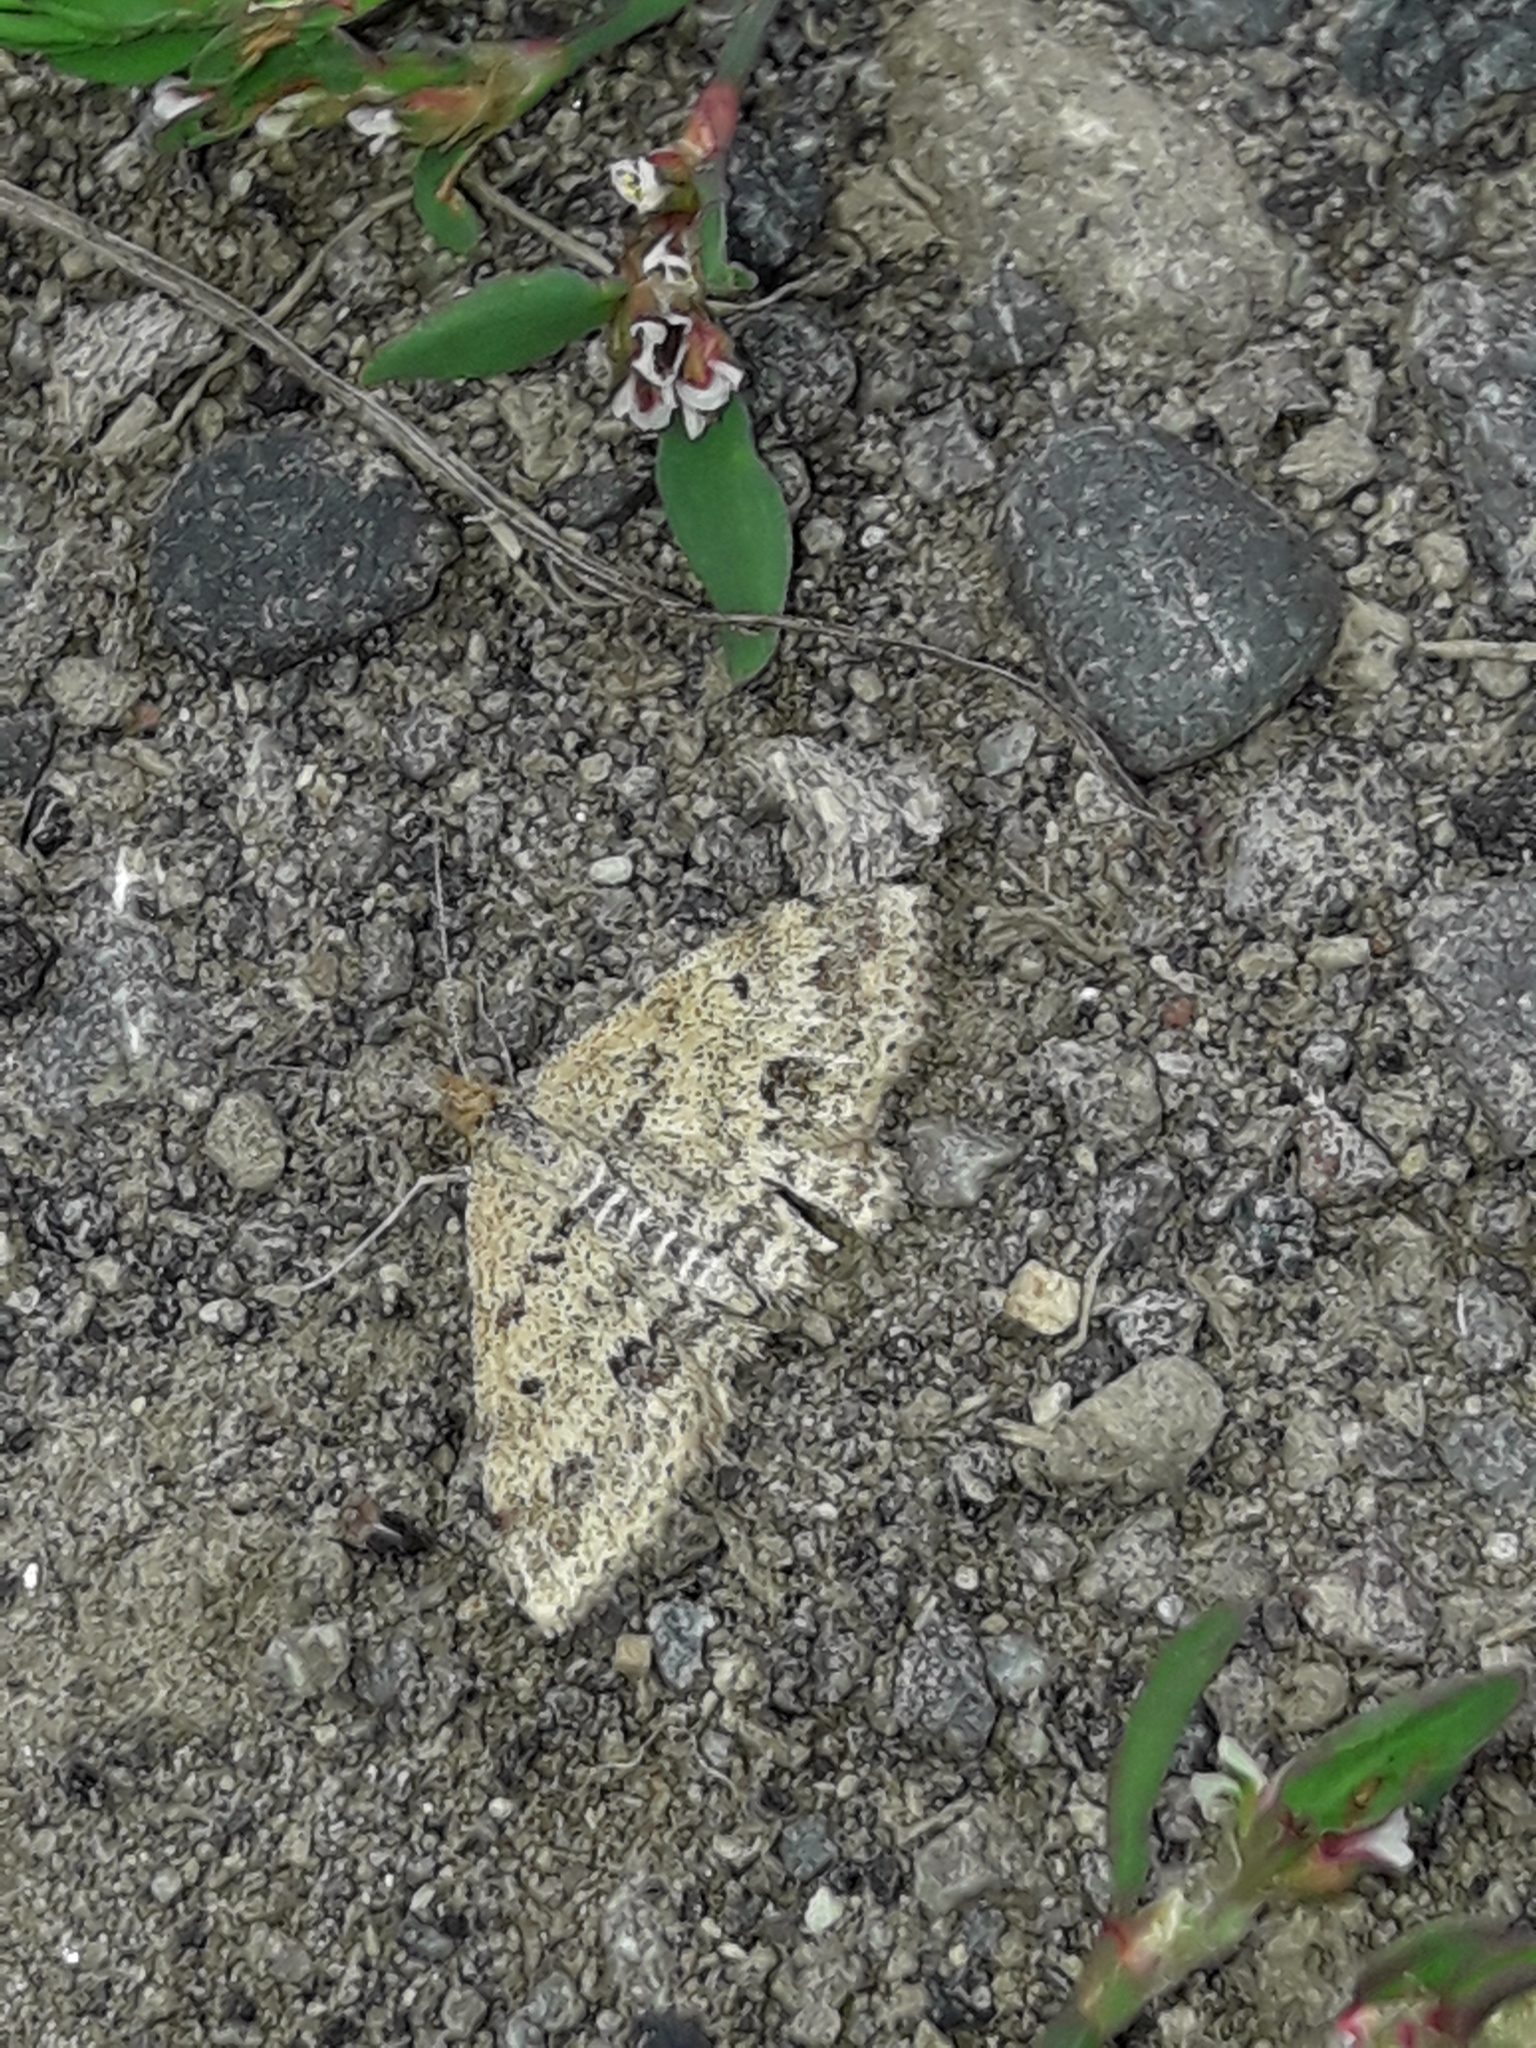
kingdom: Animalia
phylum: Arthropoda
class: Insecta
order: Lepidoptera
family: Geometridae
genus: Scopula
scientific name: Scopula rubraria
